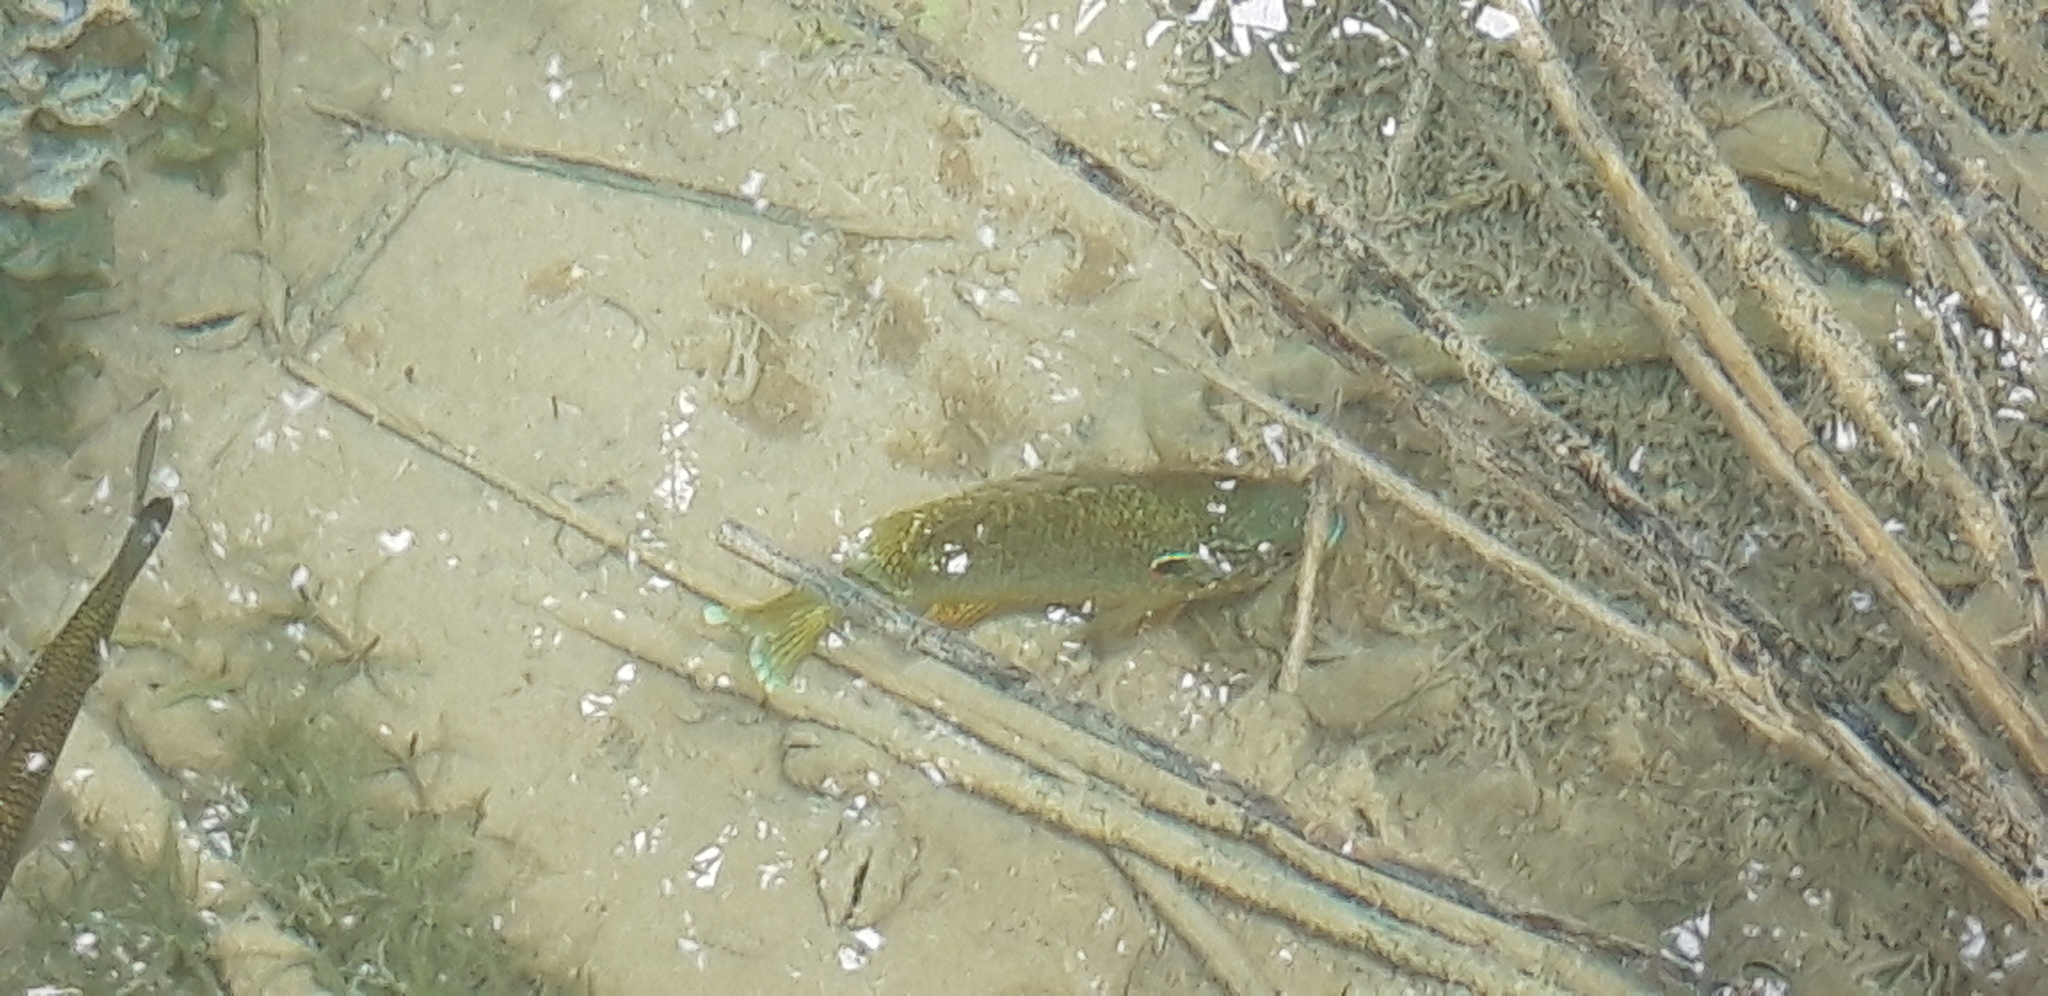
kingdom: Animalia
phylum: Chordata
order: Perciformes
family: Centrarchidae
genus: Lepomis
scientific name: Lepomis gibbosus
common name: Pumpkinseed
